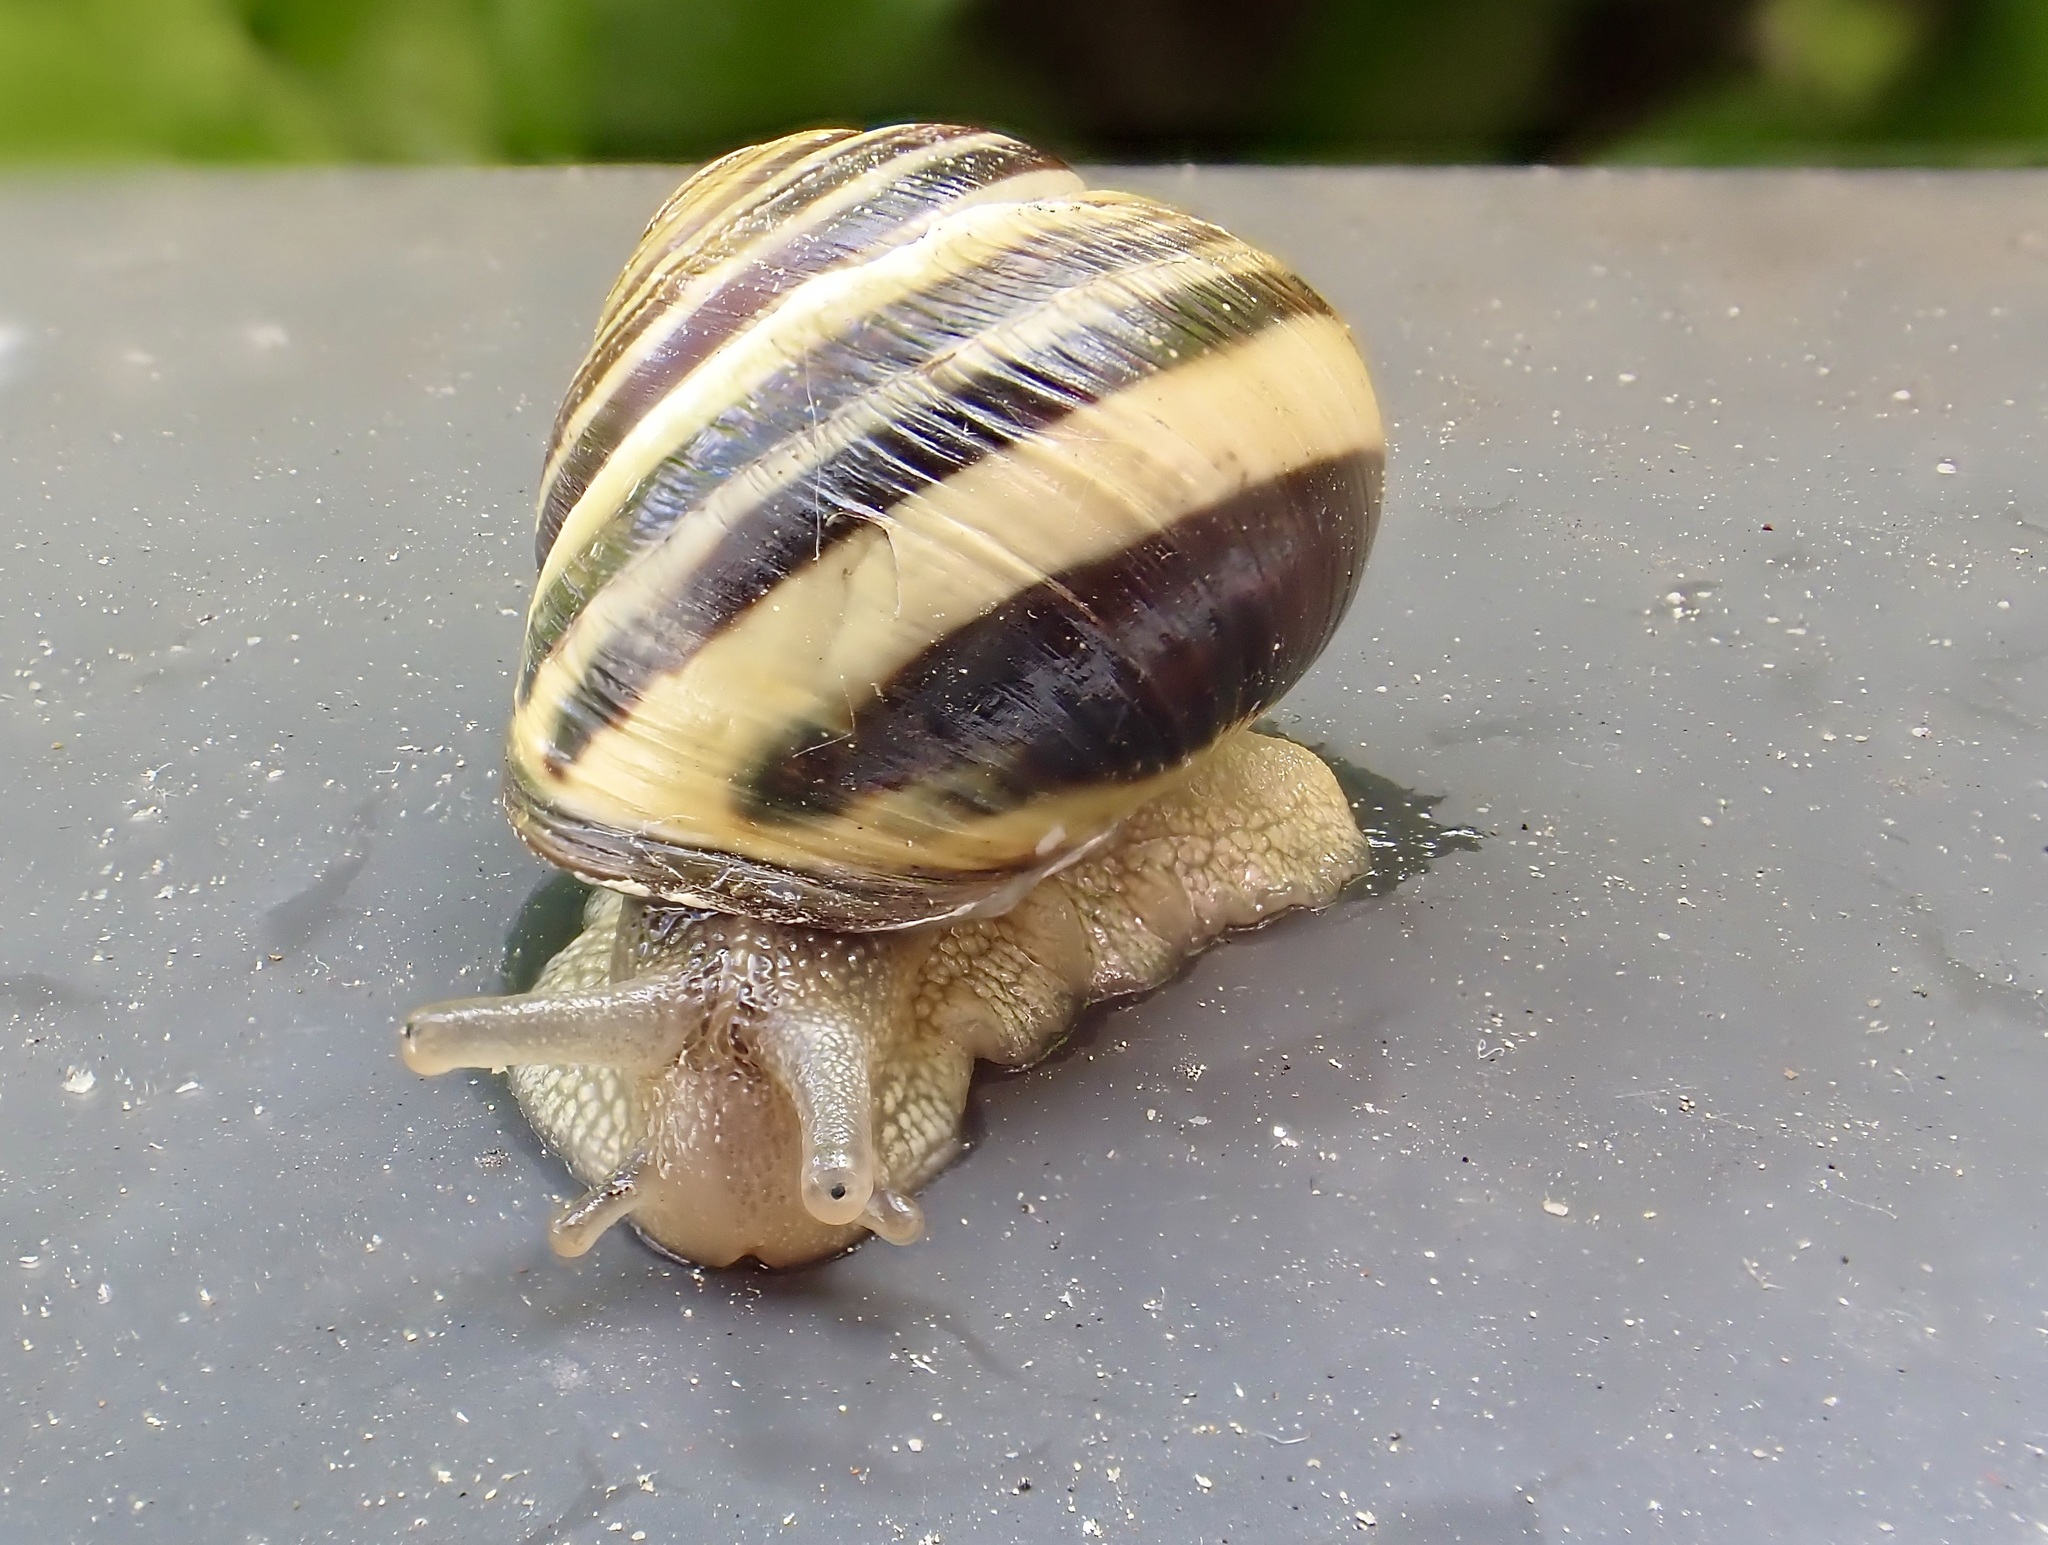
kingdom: Animalia
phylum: Mollusca
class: Gastropoda
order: Stylommatophora
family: Helicidae
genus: Cepaea
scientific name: Cepaea nemoralis
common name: Grovesnail
